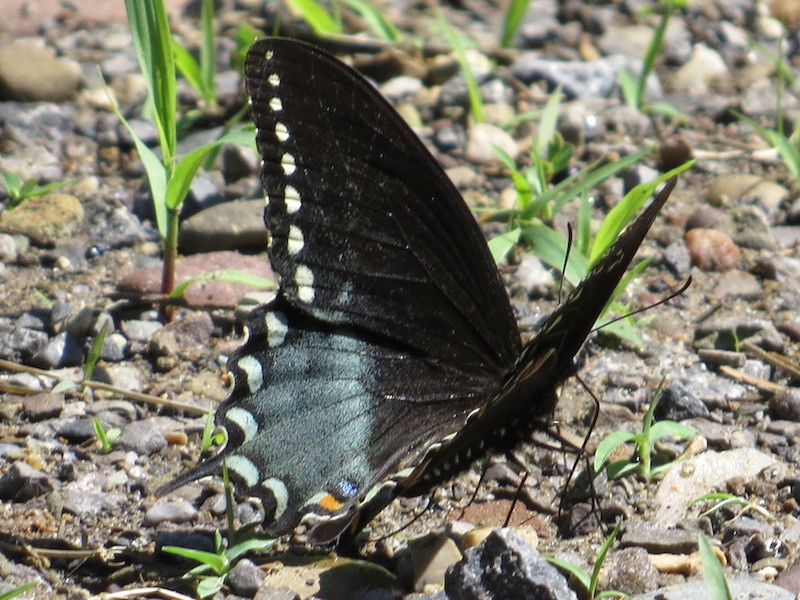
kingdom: Animalia
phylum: Arthropoda
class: Insecta
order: Lepidoptera
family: Papilionidae
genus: Papilio
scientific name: Papilio troilus
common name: Spicebush swallowtail
